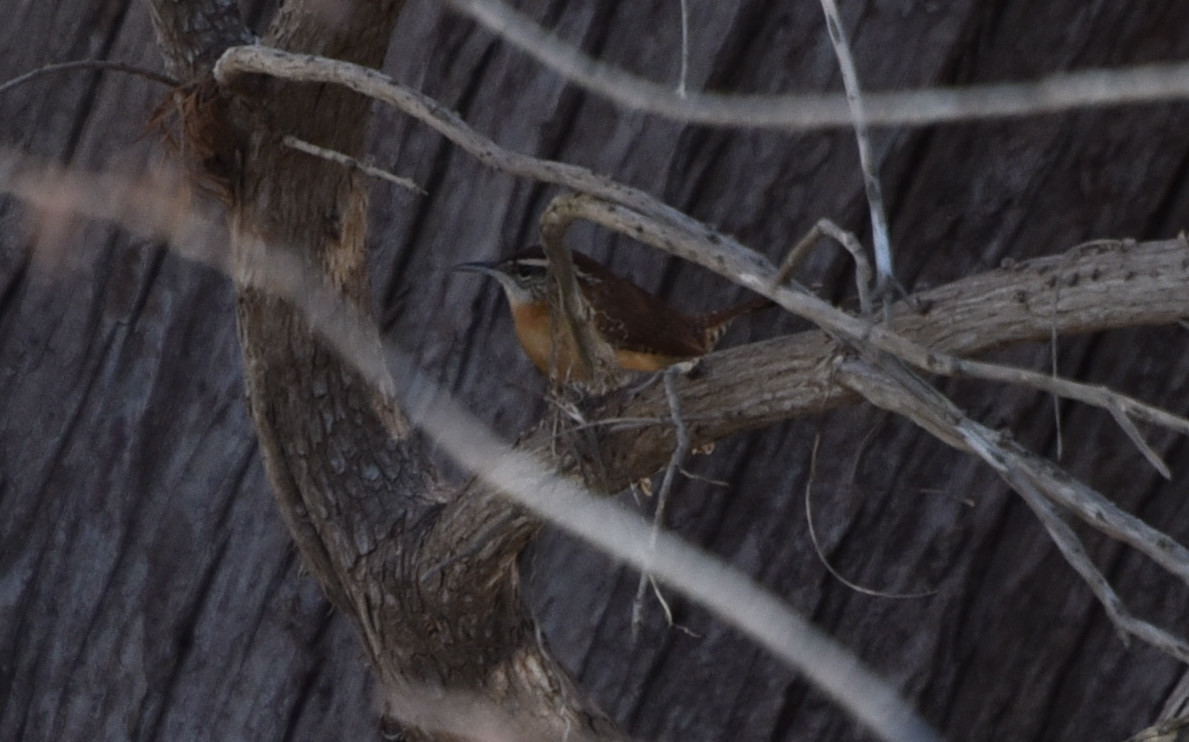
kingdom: Animalia
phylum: Chordata
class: Aves
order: Passeriformes
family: Troglodytidae
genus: Thryothorus
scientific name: Thryothorus ludovicianus
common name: Carolina wren
